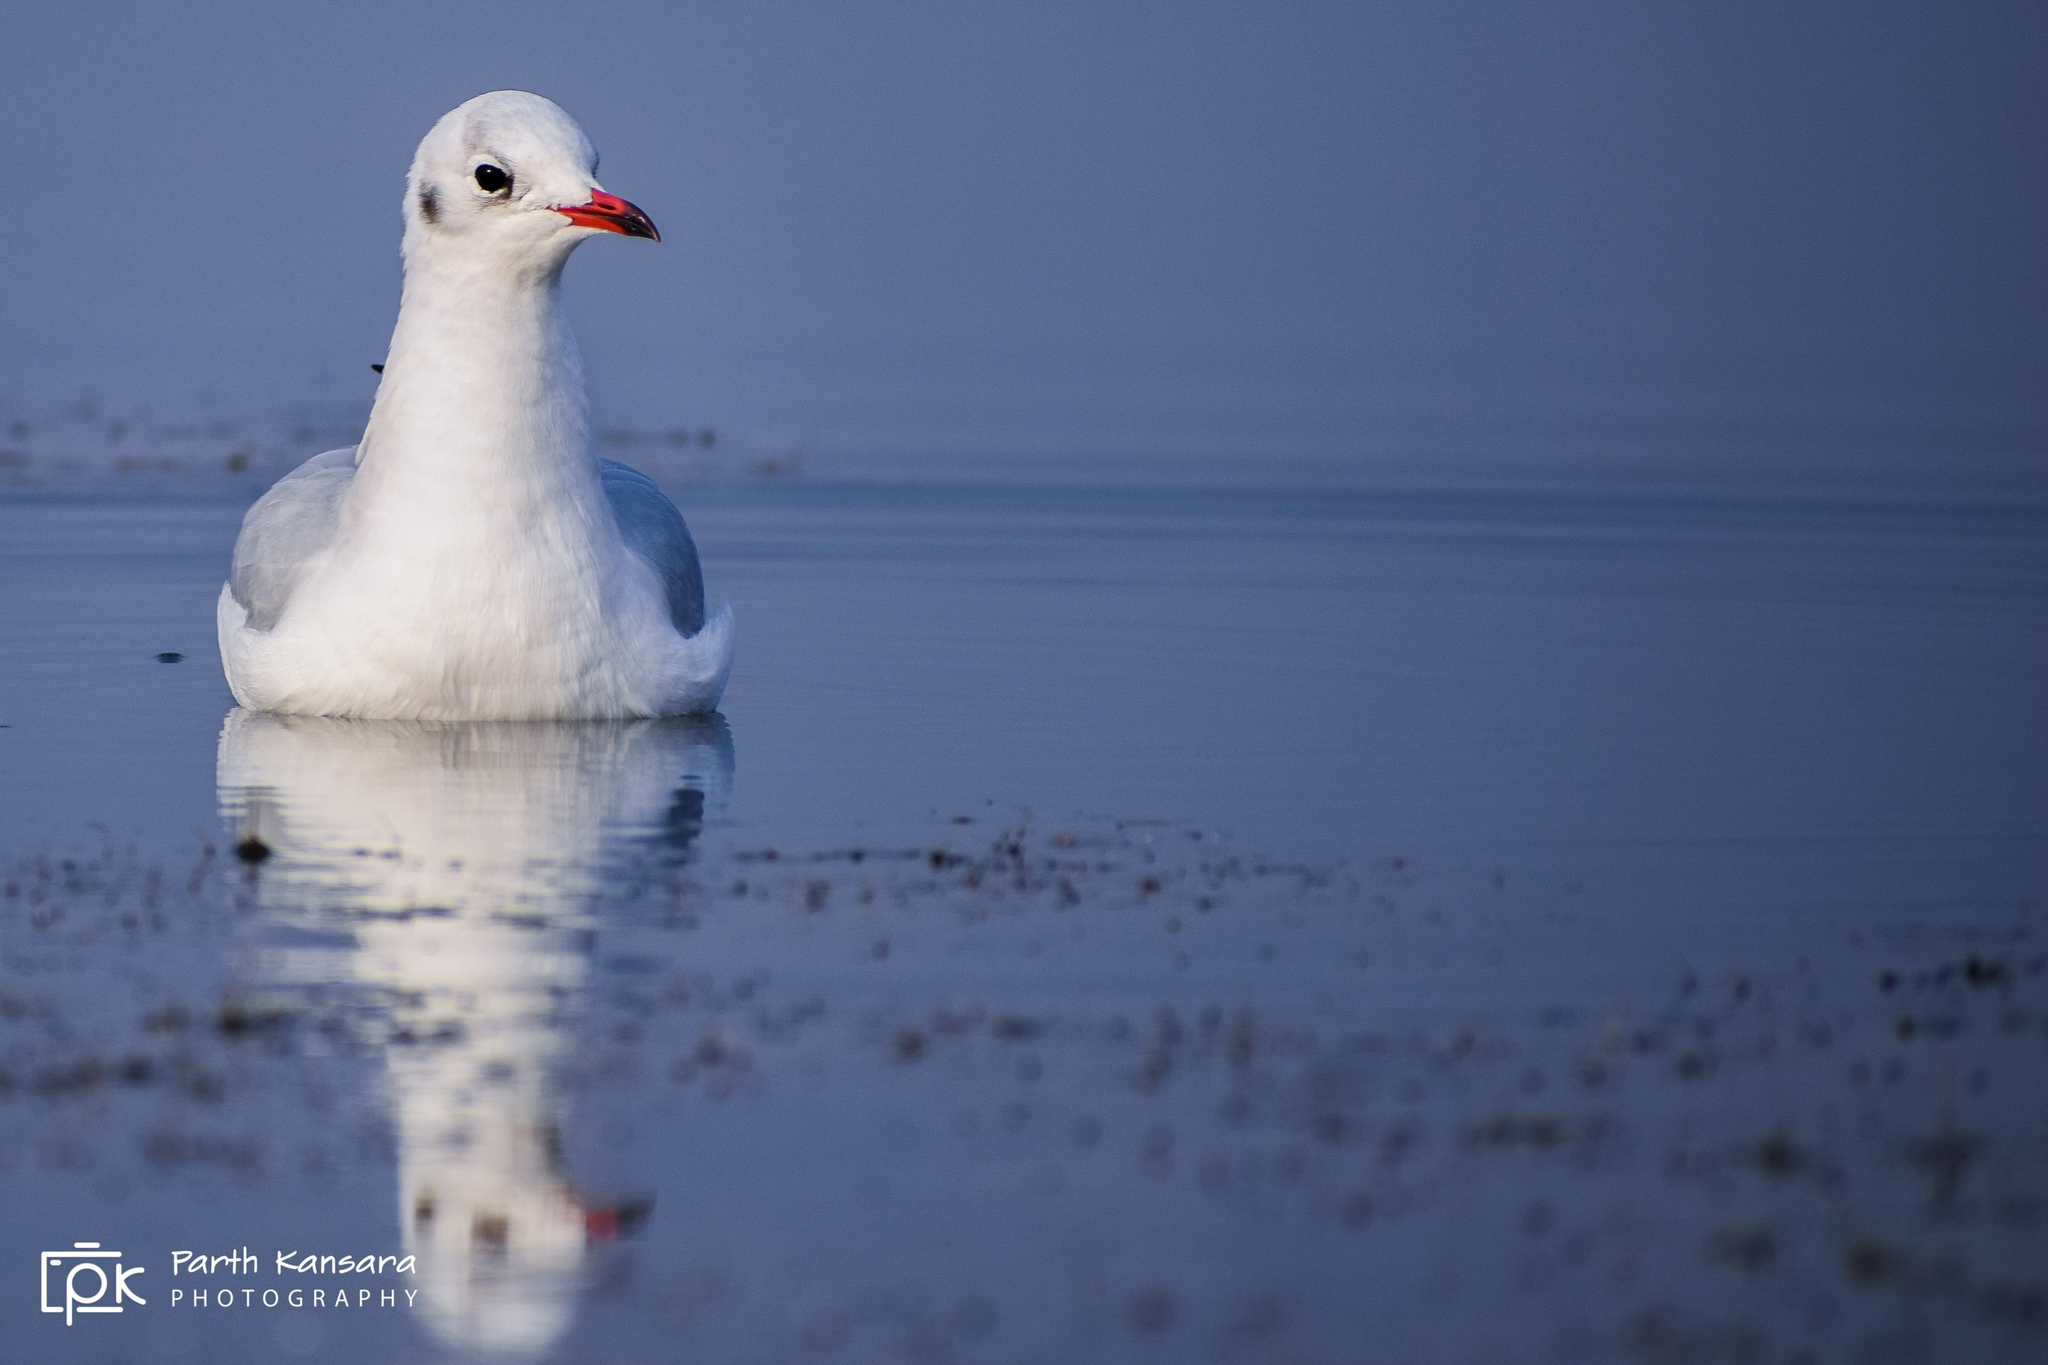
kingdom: Animalia
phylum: Chordata
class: Aves
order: Charadriiformes
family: Laridae
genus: Chroicocephalus
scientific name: Chroicocephalus ridibundus
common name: Black-headed gull
